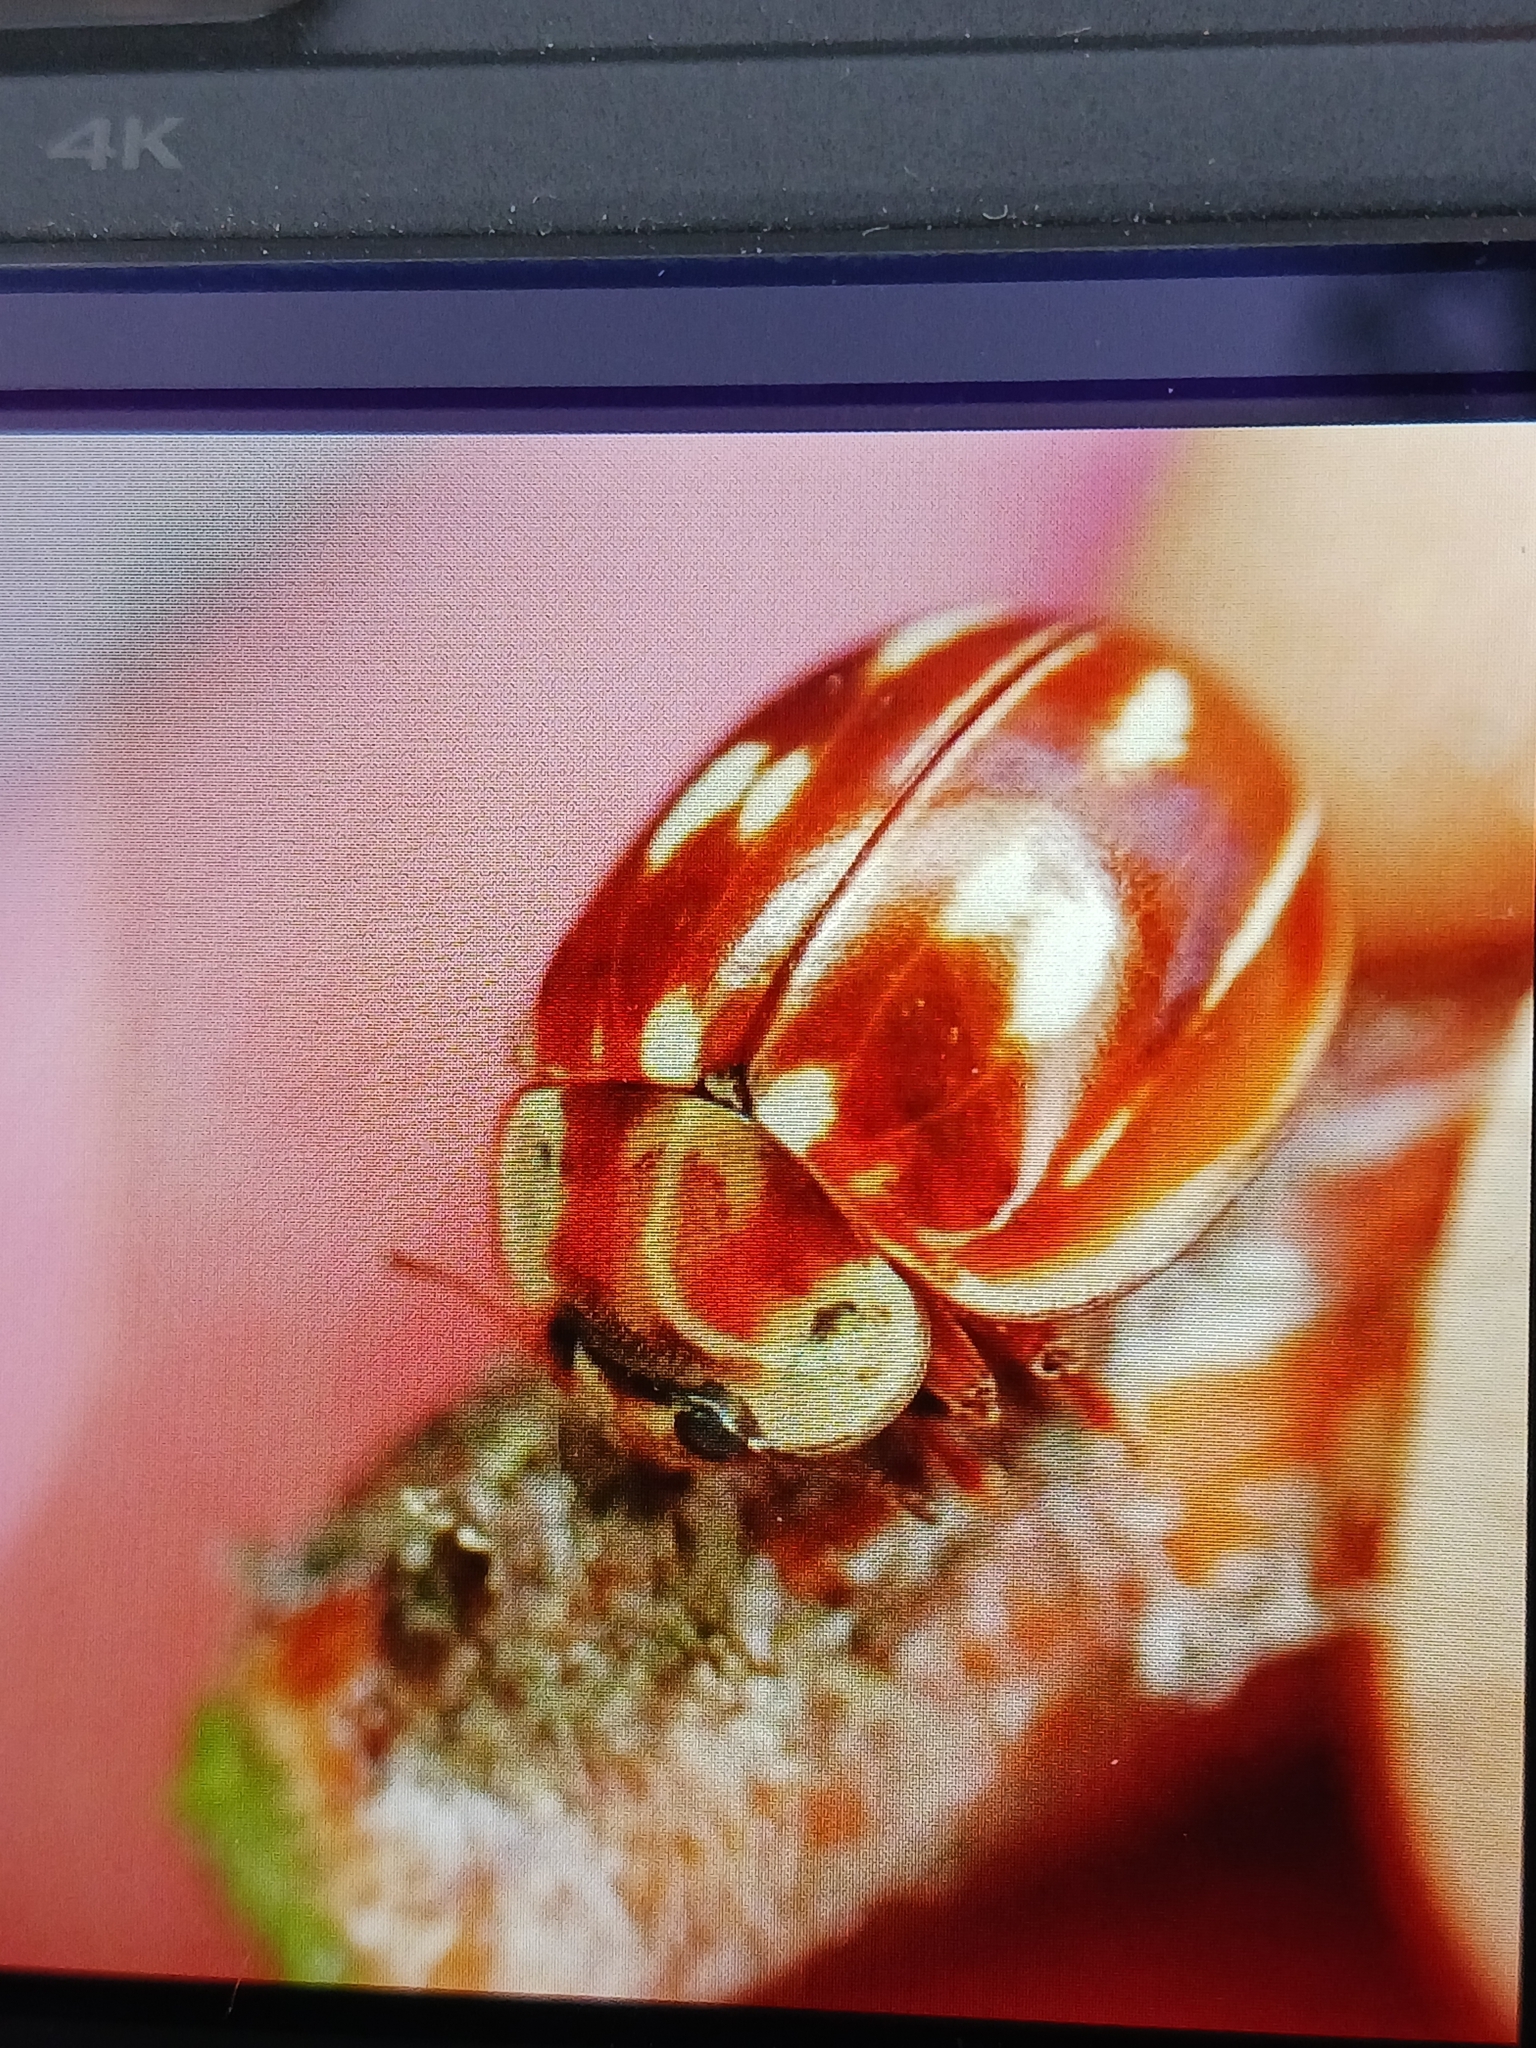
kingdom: Animalia
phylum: Arthropoda
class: Insecta
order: Coleoptera
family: Coccinellidae
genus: Myzia
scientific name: Myzia oblongoguttata
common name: Striped ladybird
